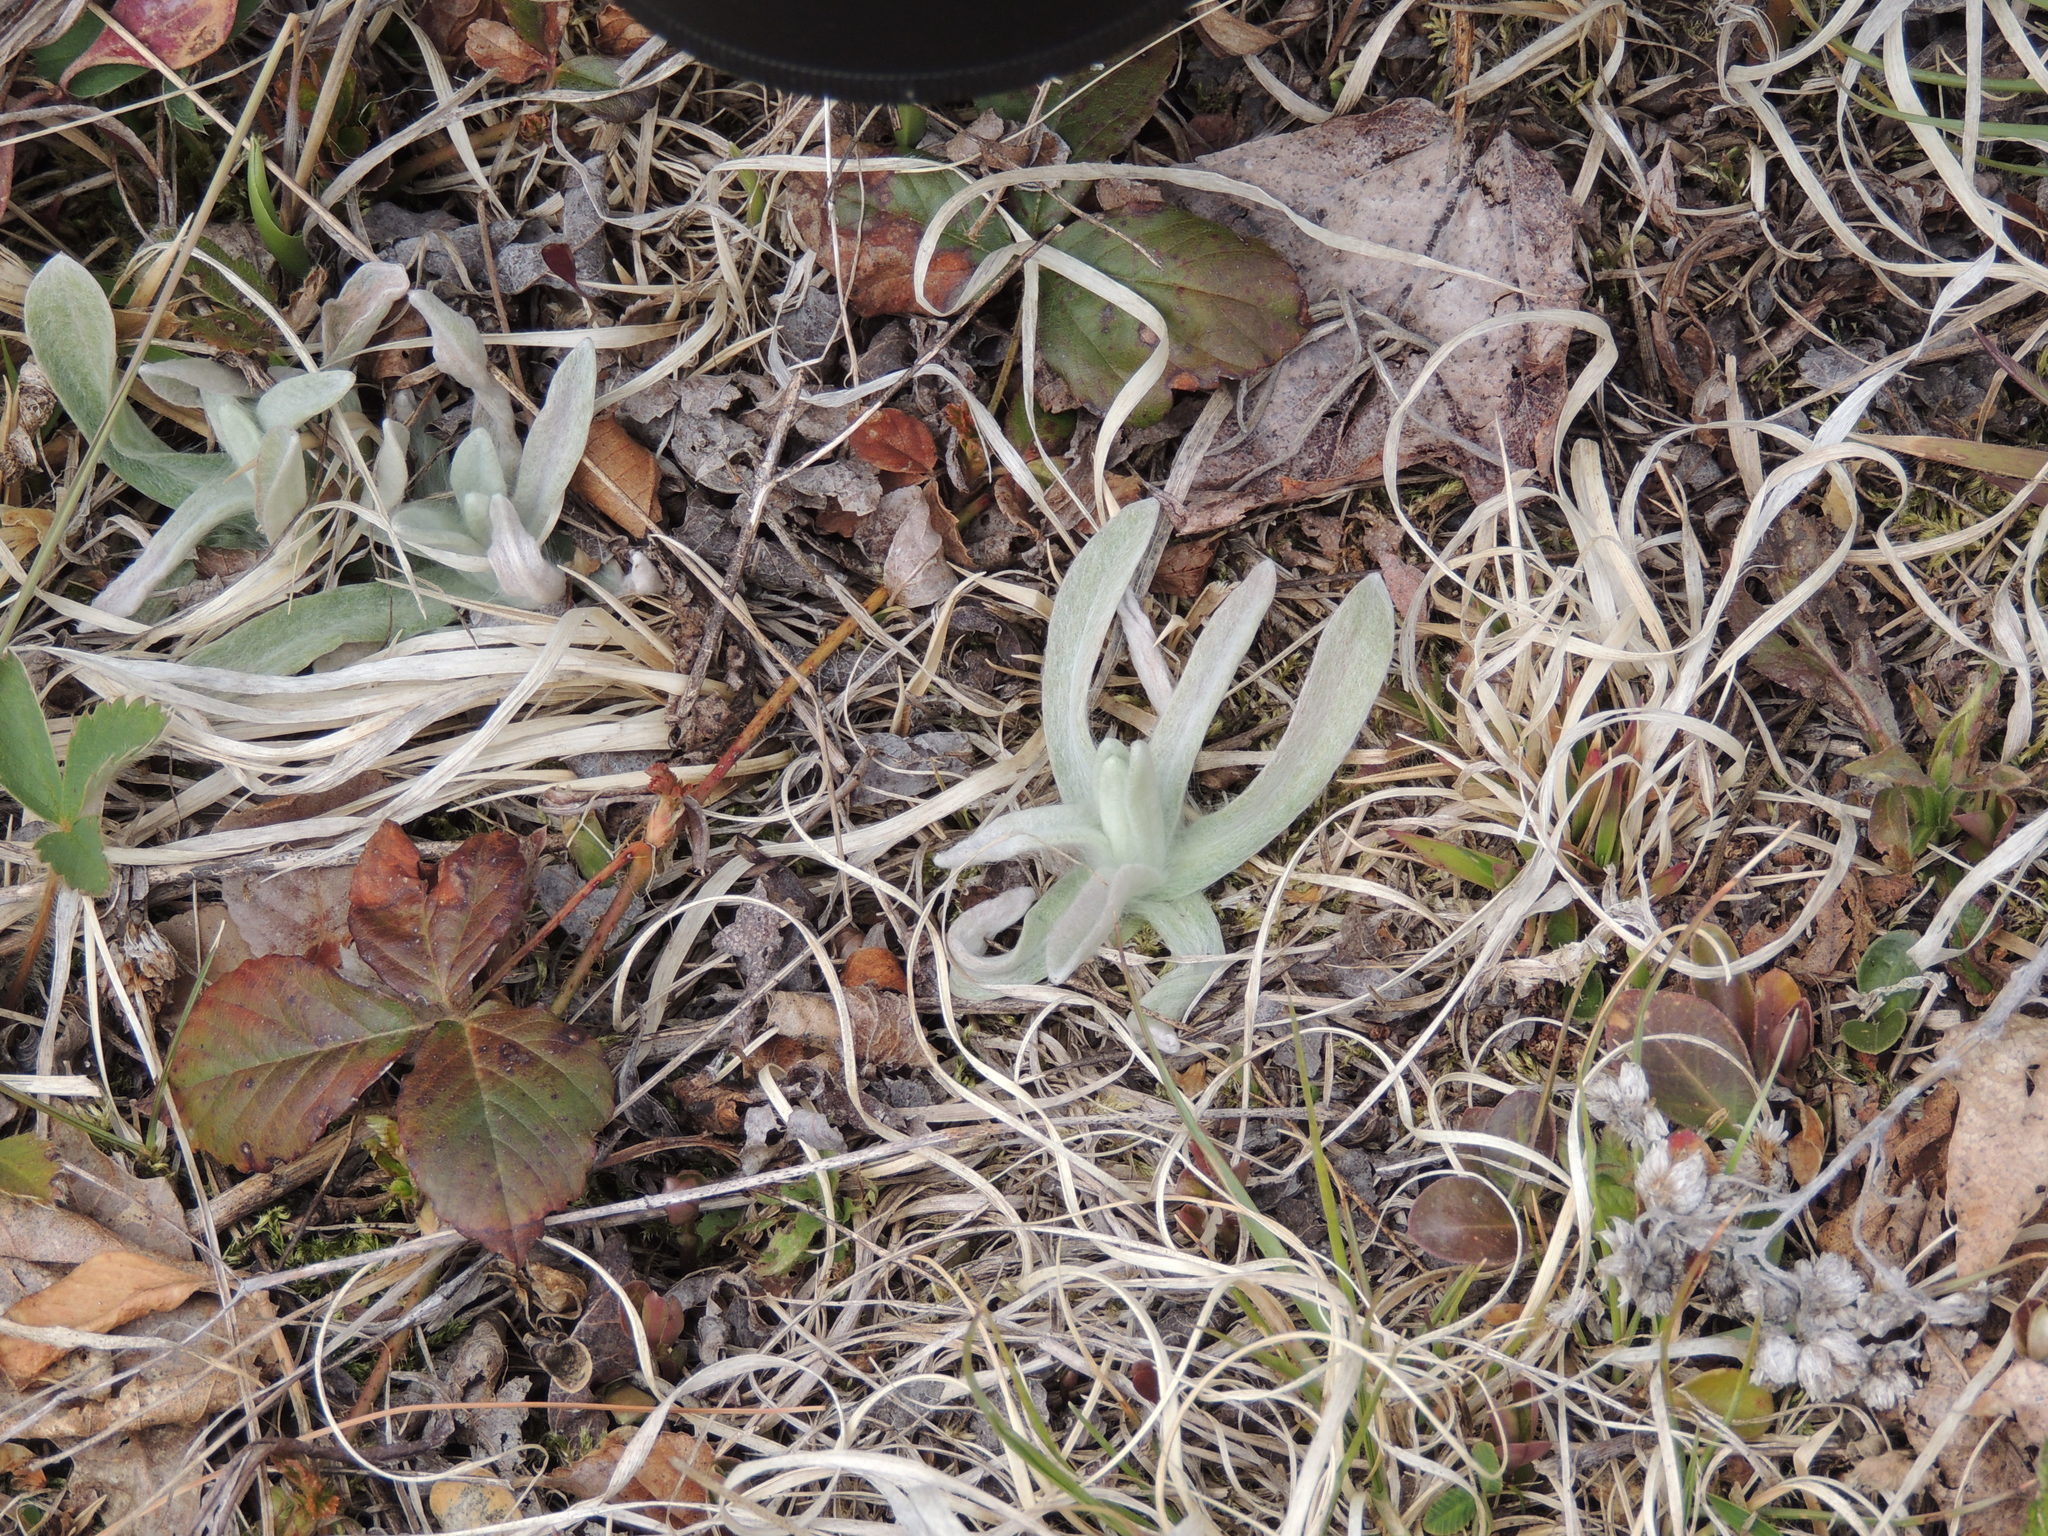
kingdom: Plantae
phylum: Tracheophyta
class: Magnoliopsida
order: Asterales
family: Asteraceae
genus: Anaphalis
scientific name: Anaphalis margaritacea
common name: Pearly everlasting
